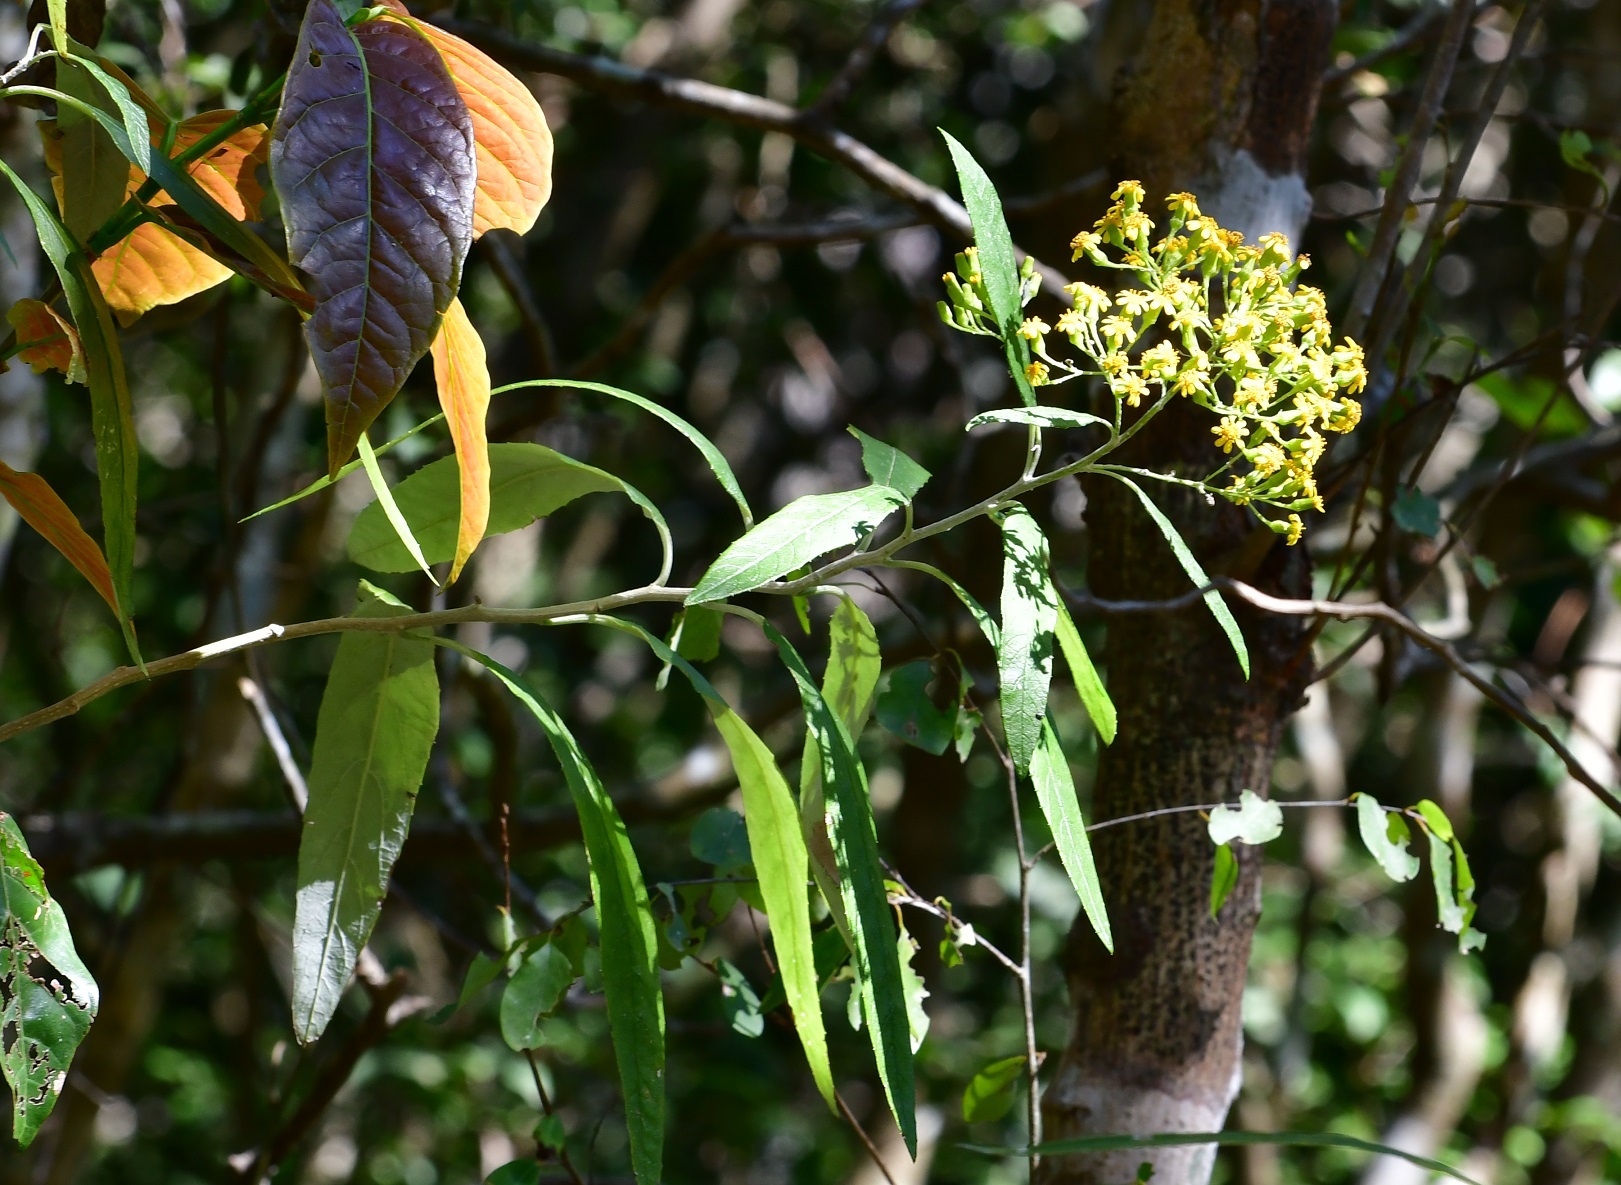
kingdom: Plantae
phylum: Tracheophyta
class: Magnoliopsida
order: Asterales
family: Asteraceae
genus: Zemisia
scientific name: Zemisia thomasii
